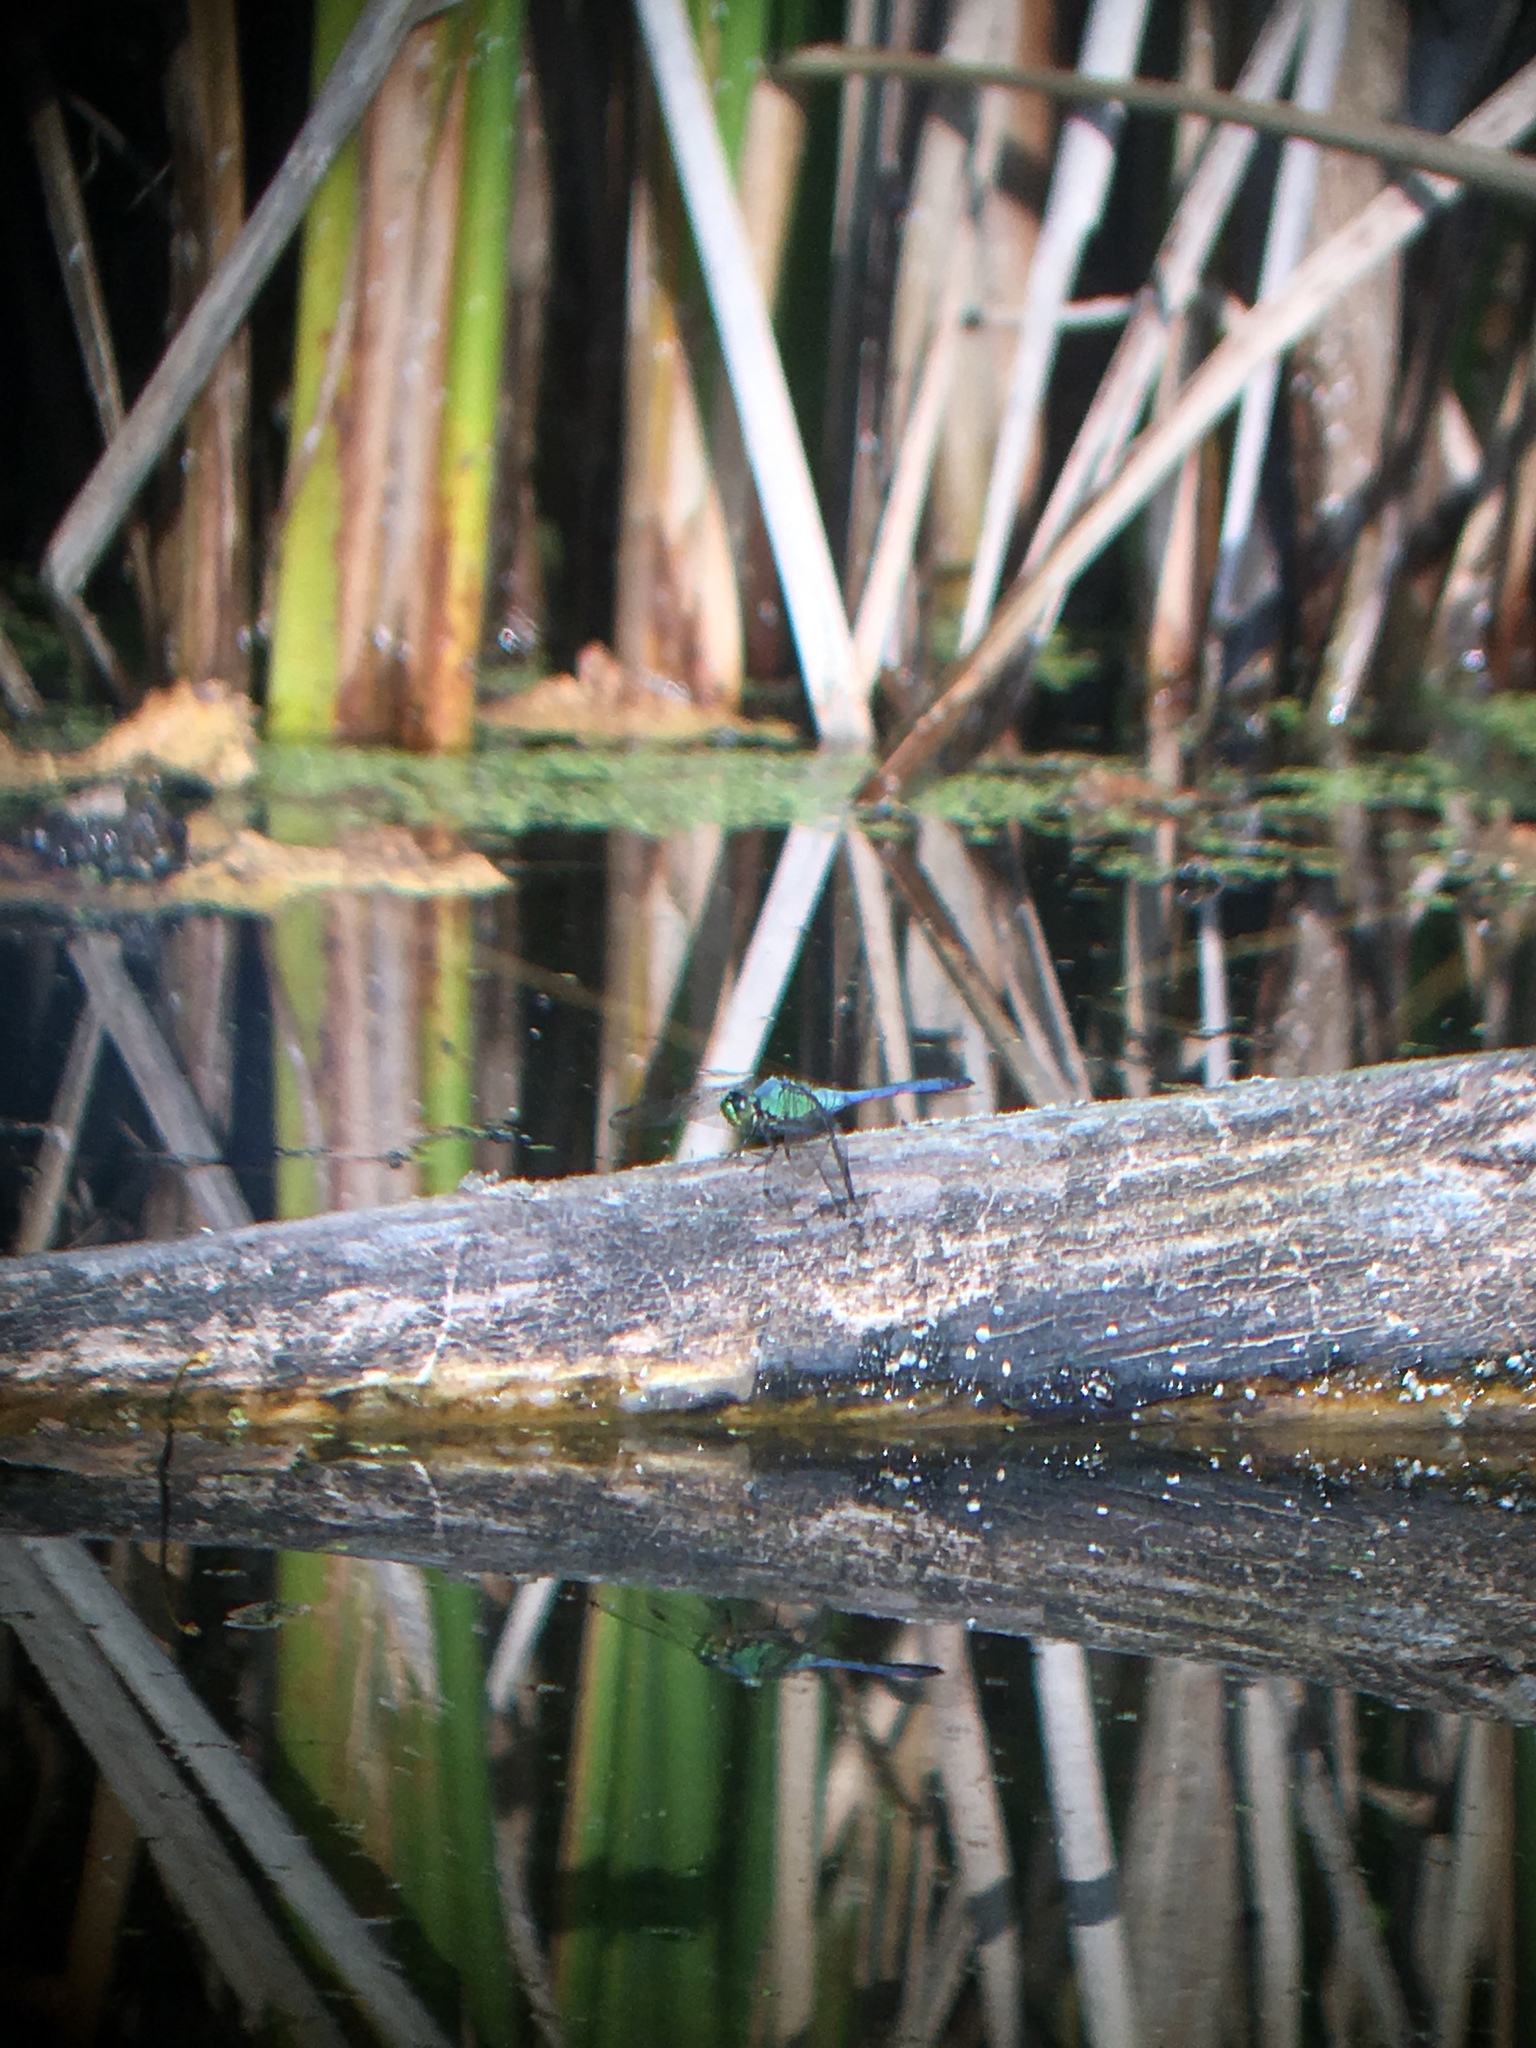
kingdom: Animalia
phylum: Arthropoda
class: Insecta
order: Odonata
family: Libellulidae
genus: Erythemis
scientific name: Erythemis simplicicollis
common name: Eastern pondhawk
